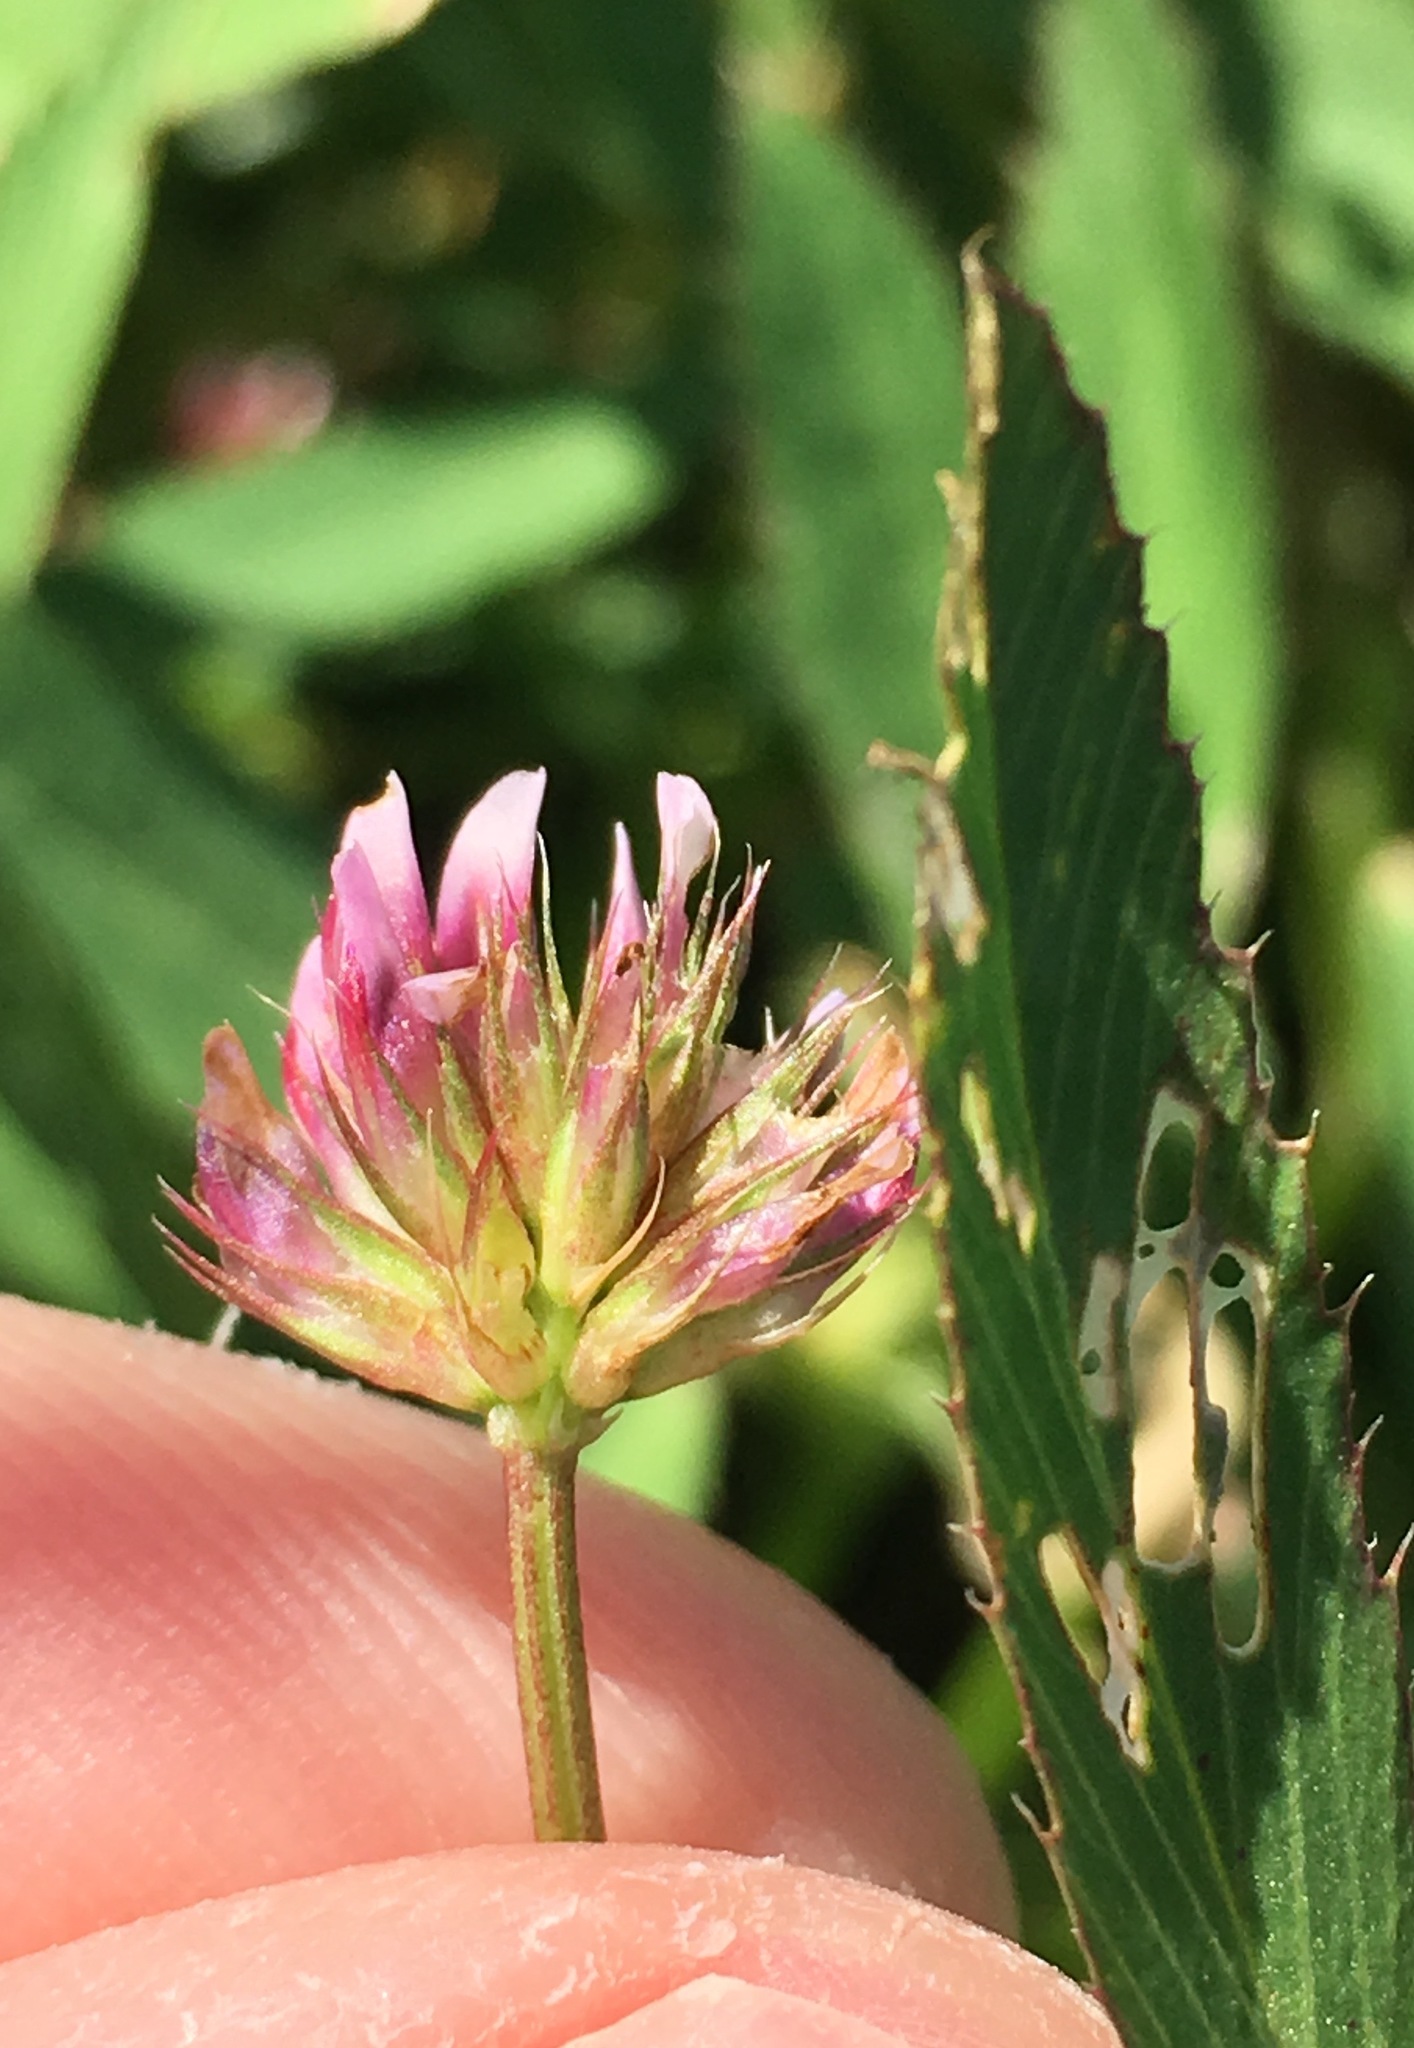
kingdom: Plantae
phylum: Tracheophyta
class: Magnoliopsida
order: Fabales
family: Fabaceae
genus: Trifolium
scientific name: Trifolium palmeri
